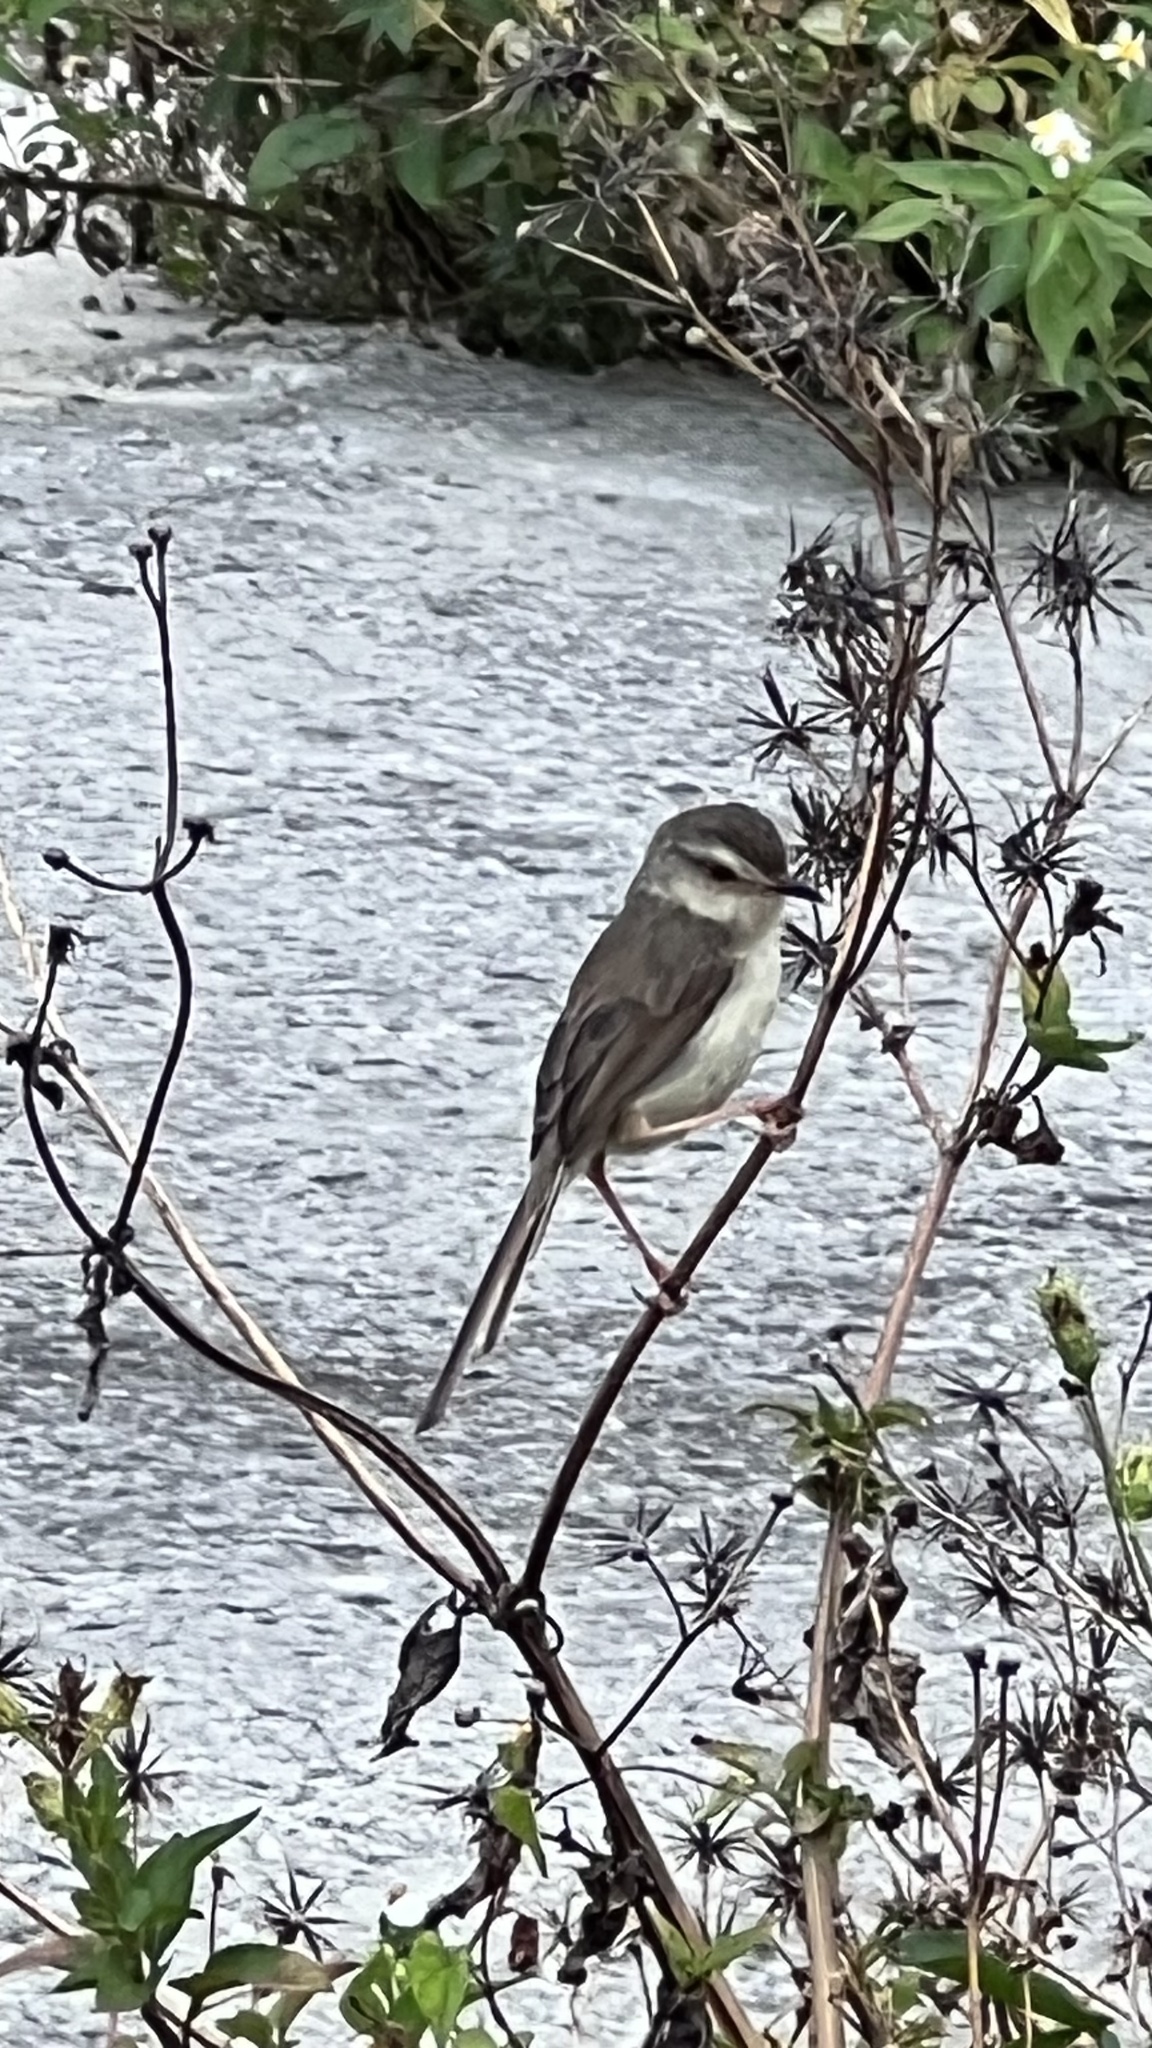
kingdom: Animalia
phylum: Chordata
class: Aves
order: Passeriformes
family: Cisticolidae
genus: Prinia
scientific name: Prinia inornata
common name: Plain prinia
